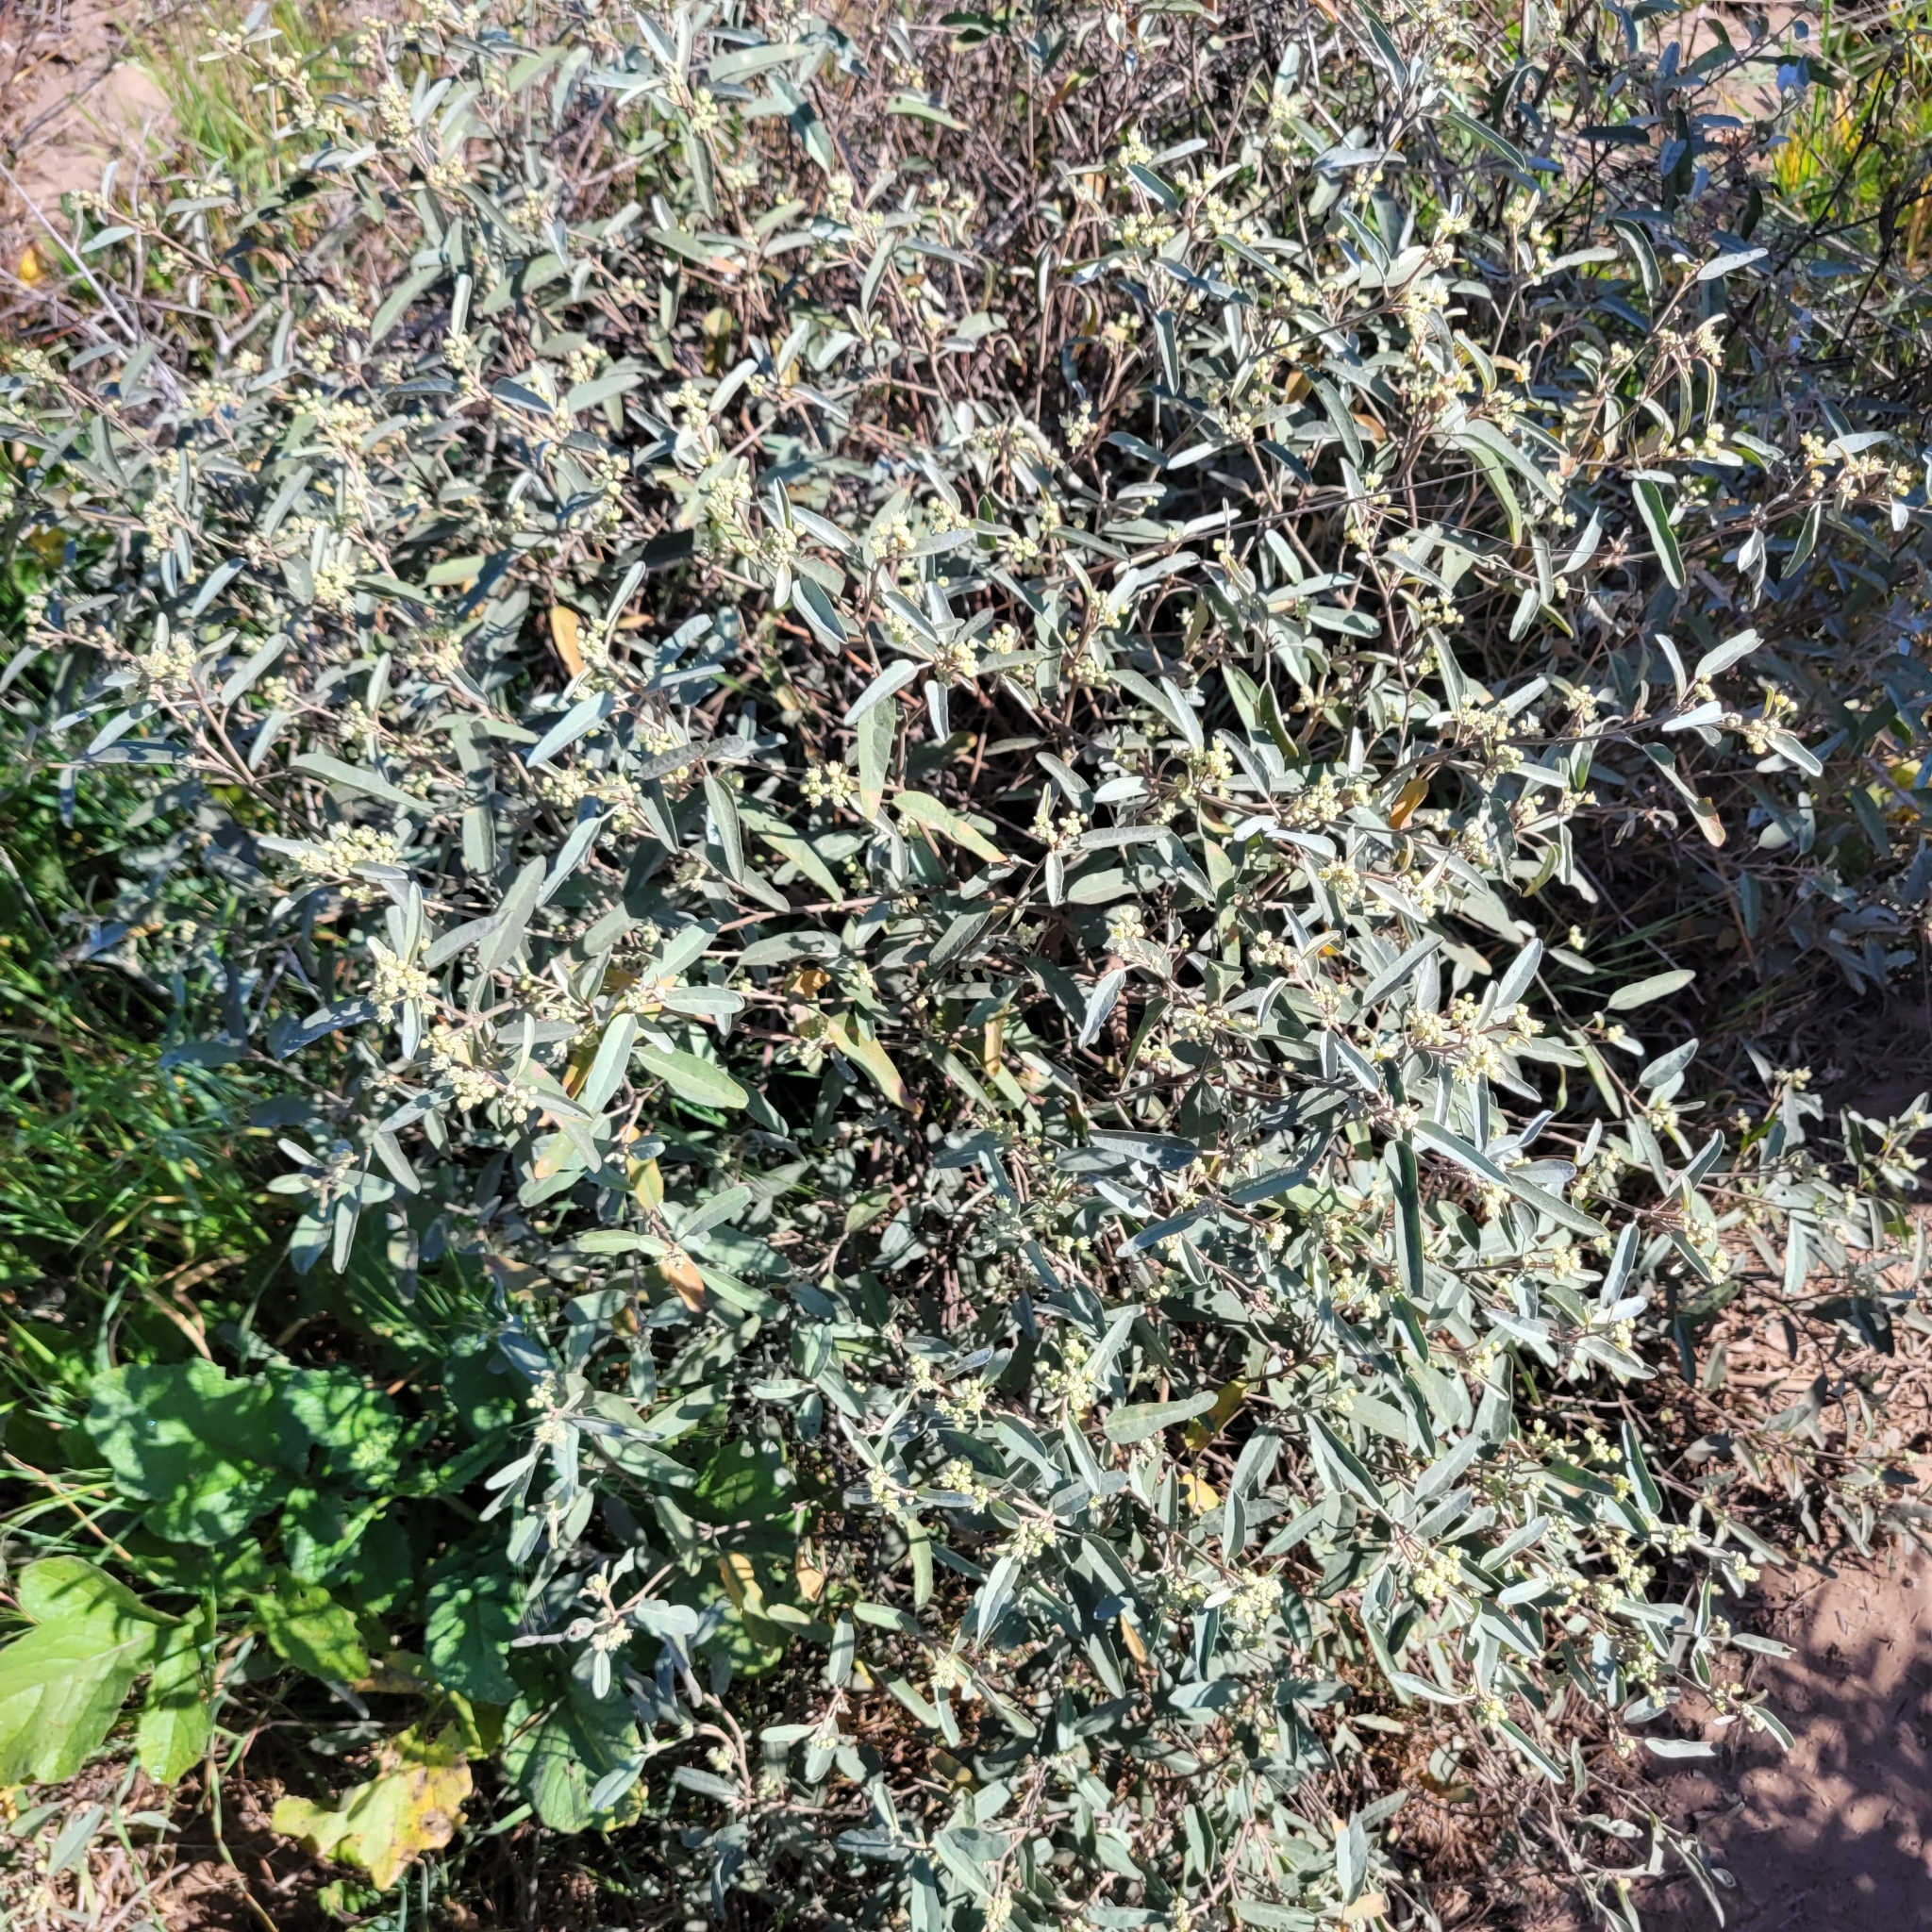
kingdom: Plantae
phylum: Tracheophyta
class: Magnoliopsida
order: Malpighiales
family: Euphorbiaceae
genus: Croton
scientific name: Croton californicus
